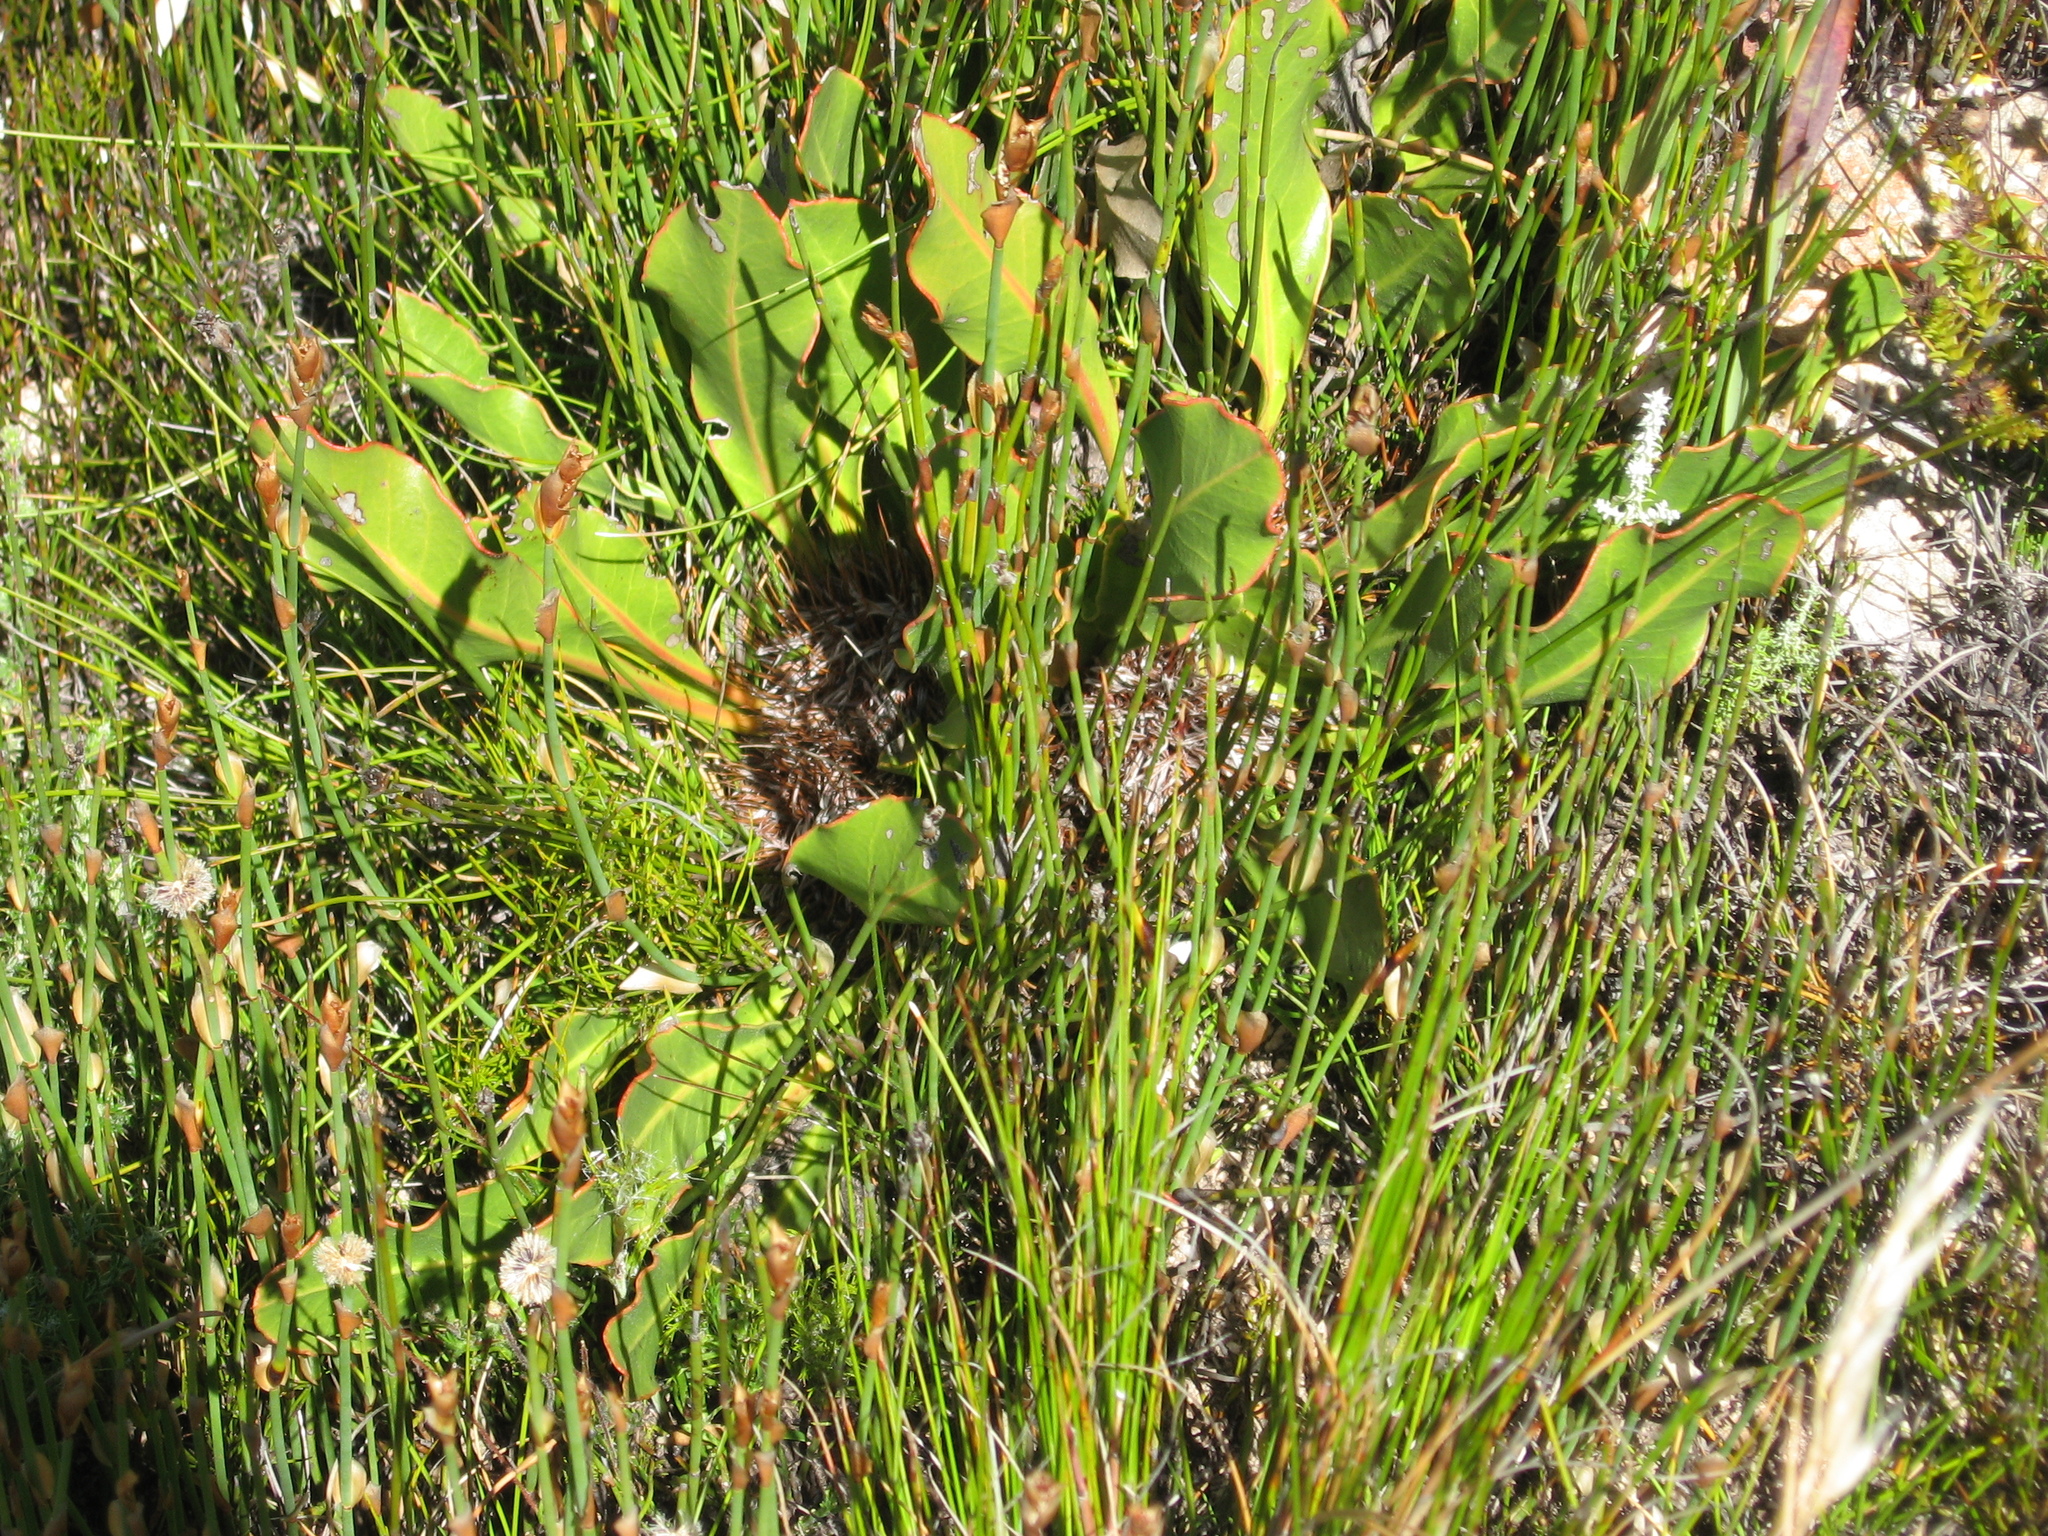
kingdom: Plantae
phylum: Tracheophyta
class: Magnoliopsida
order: Proteales
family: Proteaceae
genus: Protea
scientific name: Protea scolopendriifolia
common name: Harts-tongue-fern sugarbush
